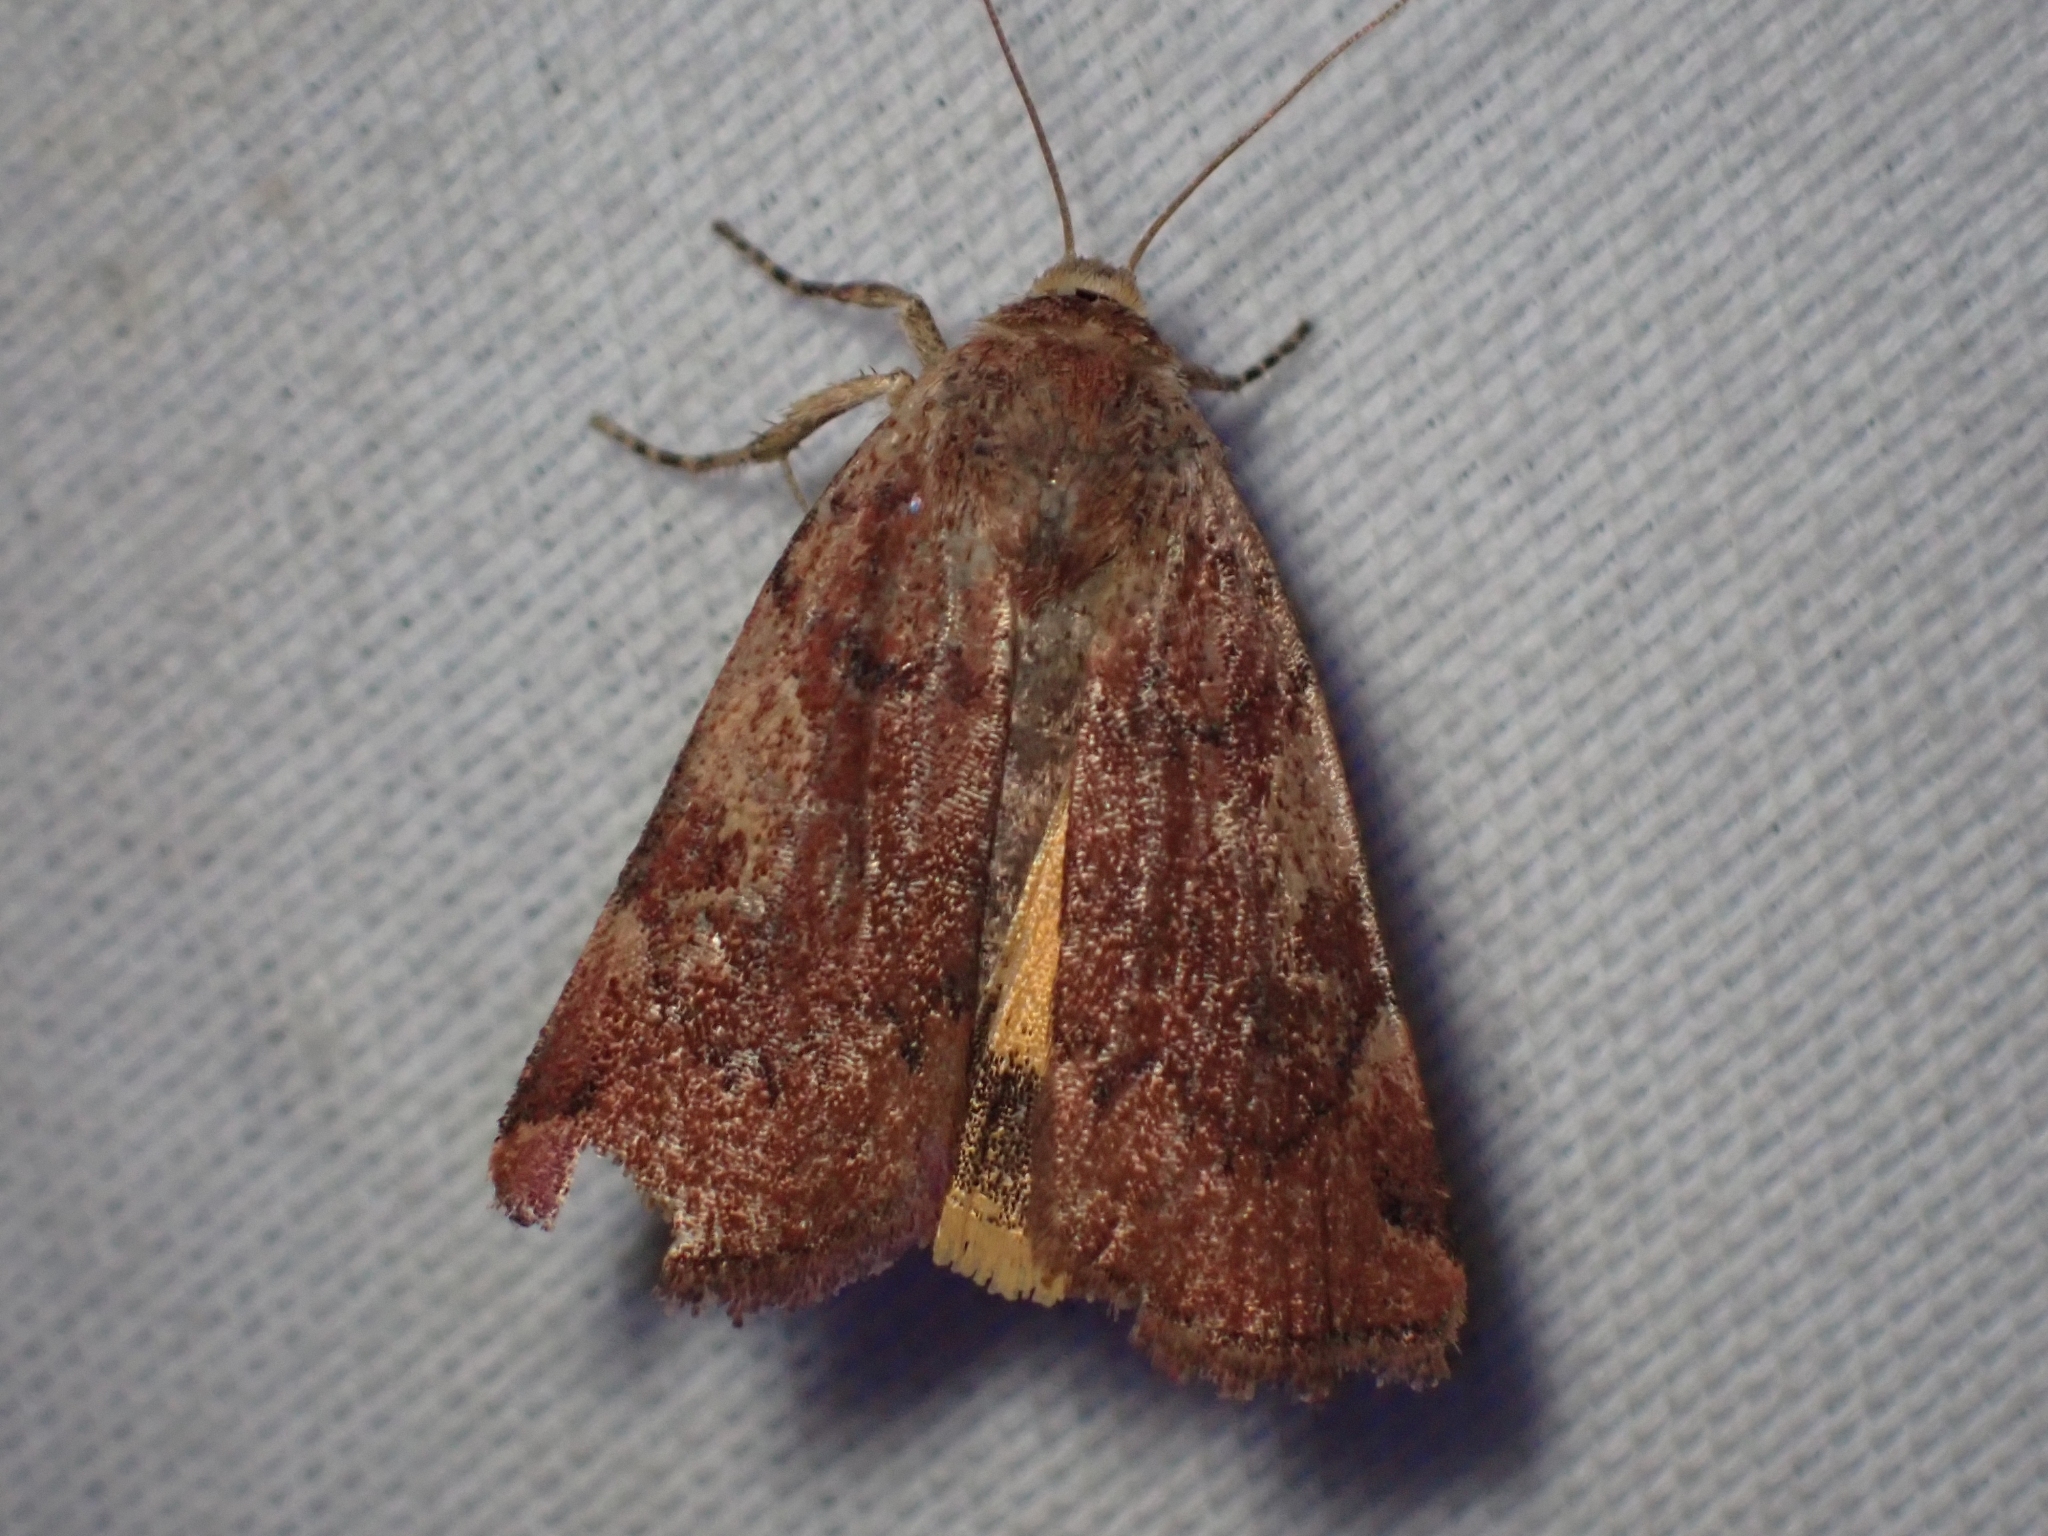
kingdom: Animalia
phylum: Arthropoda
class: Insecta
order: Lepidoptera
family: Noctuidae
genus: Cryptocala
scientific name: Cryptocala acadiensis
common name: Catocaline dart
